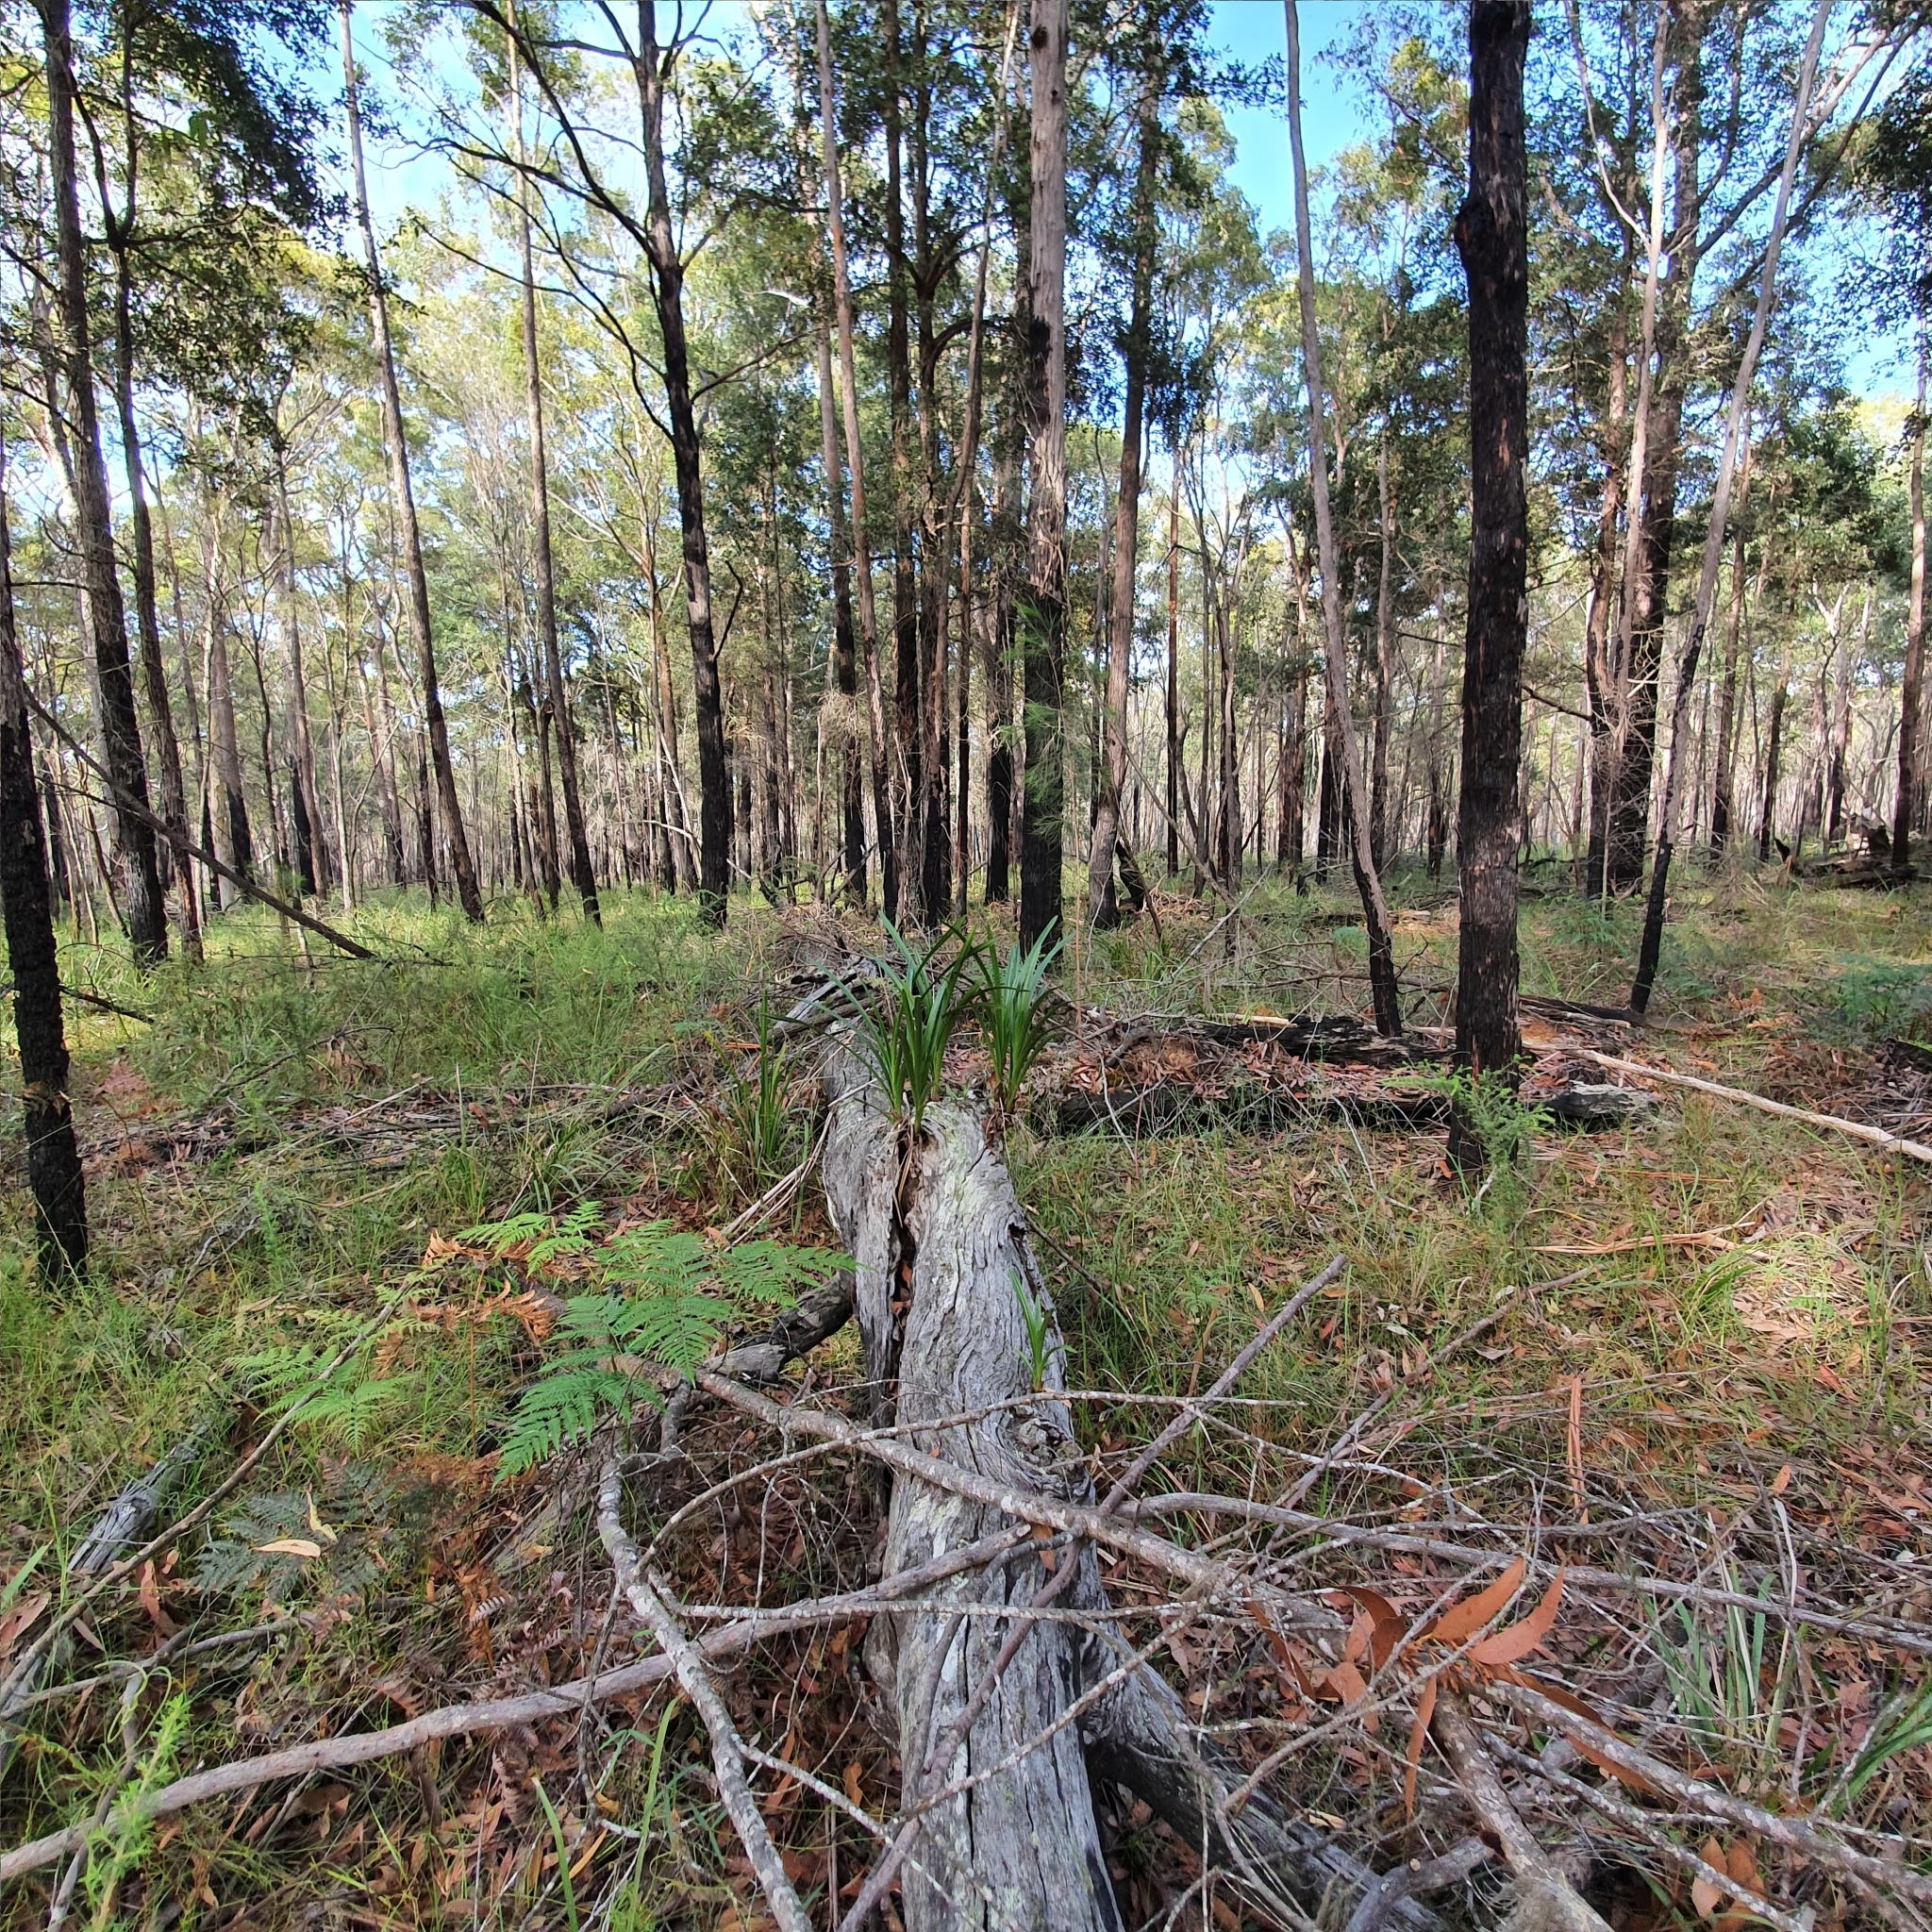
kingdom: Plantae
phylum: Tracheophyta
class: Liliopsida
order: Asparagales
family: Orchidaceae
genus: Cymbidium
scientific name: Cymbidium suave
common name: Snake orchid
